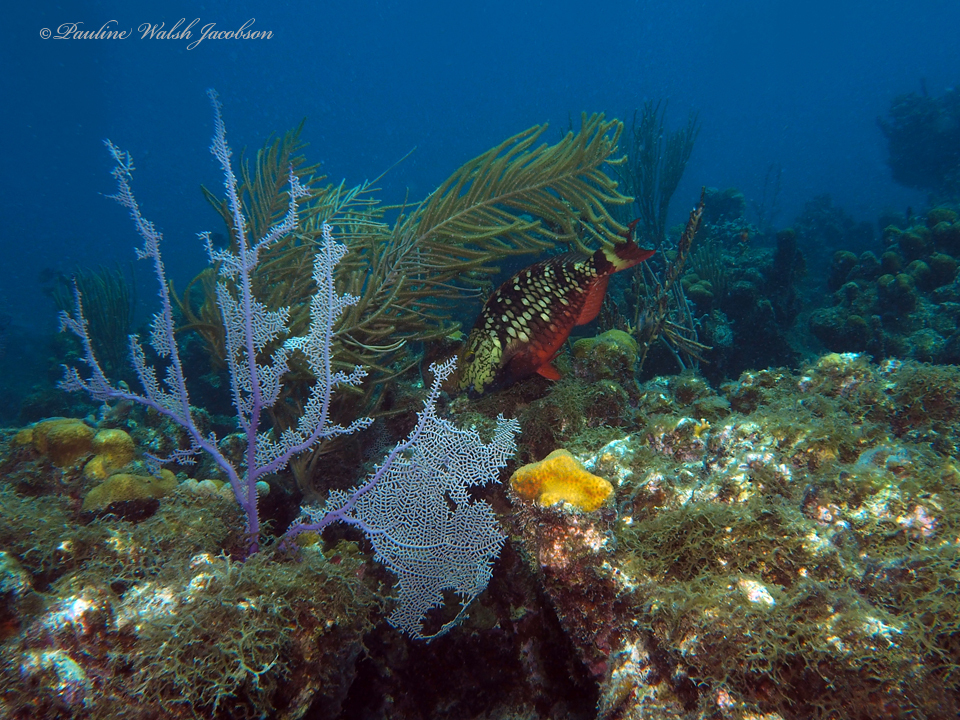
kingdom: Animalia
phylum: Chordata
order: Perciformes
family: Scaridae
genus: Sparisoma
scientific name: Sparisoma viride
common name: Stoplight parrotfish
